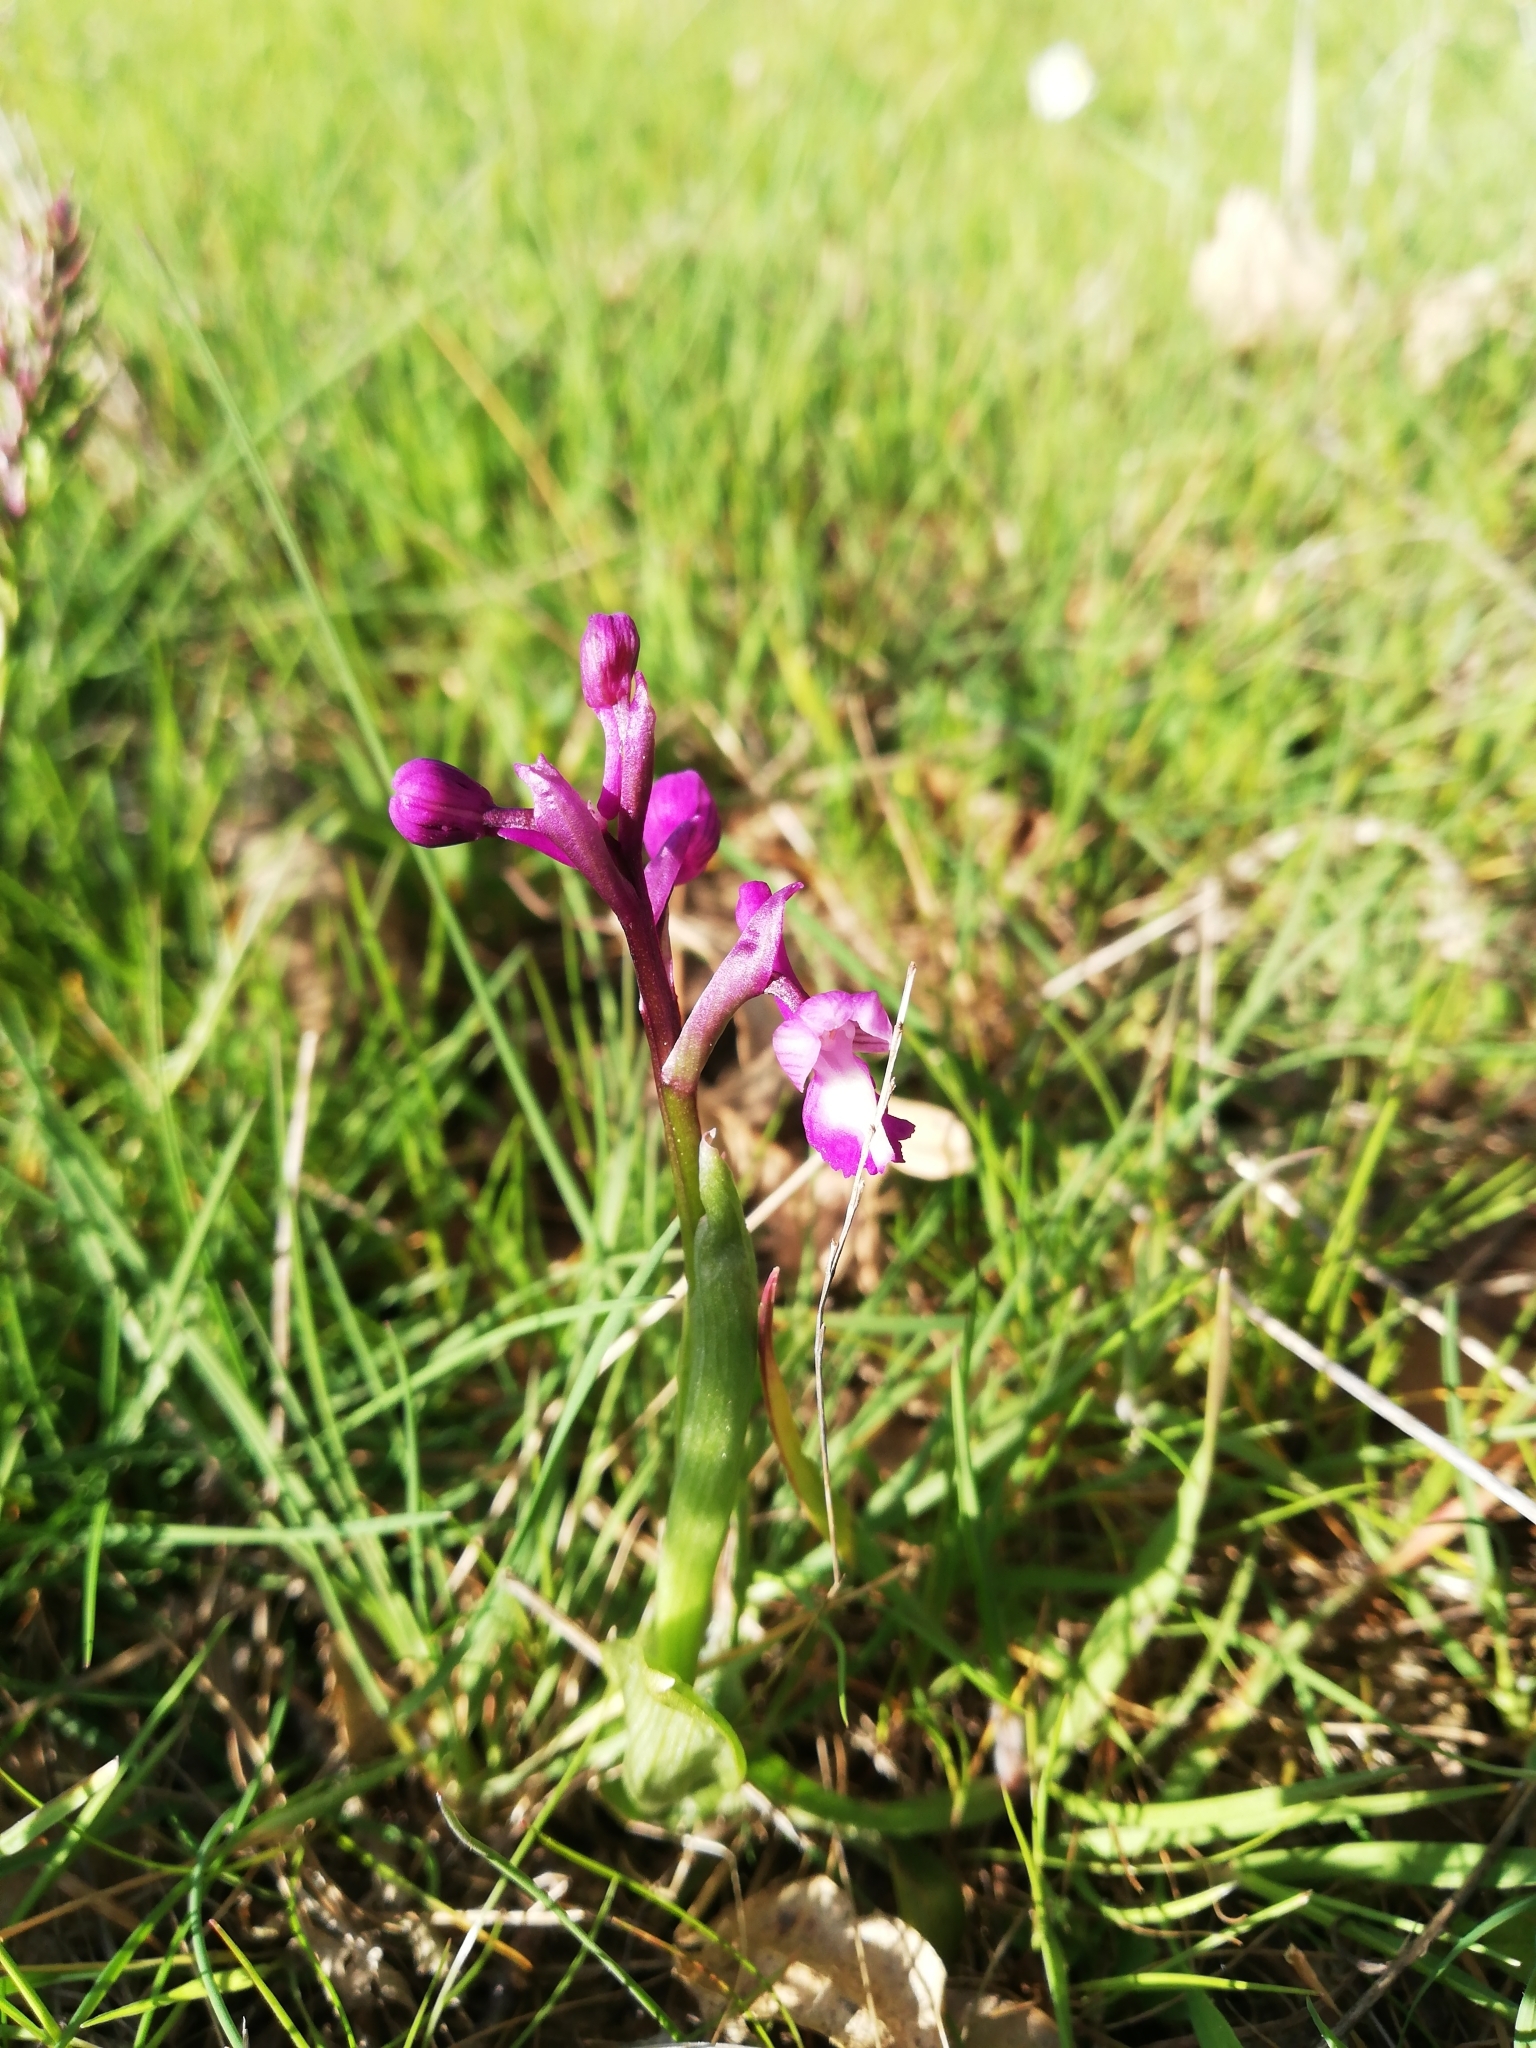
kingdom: Plantae
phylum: Tracheophyta
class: Liliopsida
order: Asparagales
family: Orchidaceae
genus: Anacamptis
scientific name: Anacamptis morio
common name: Green-winged orchid
